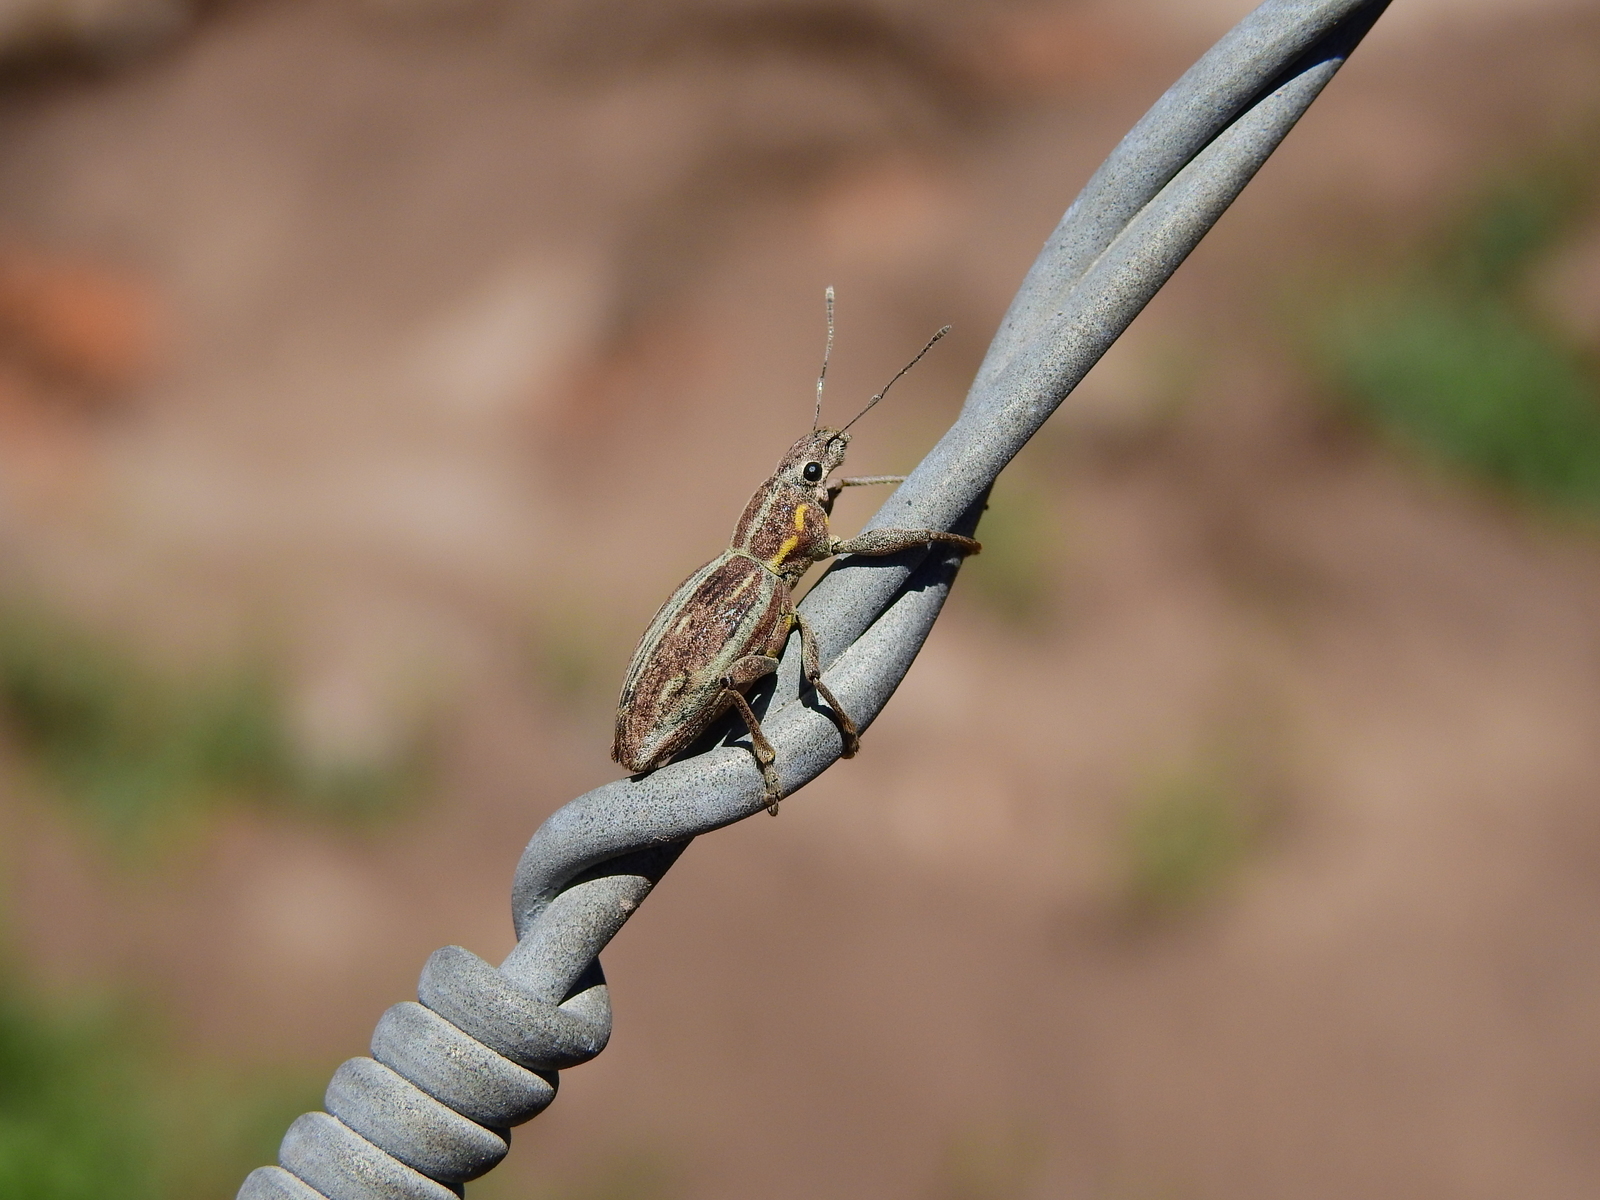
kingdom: Animalia
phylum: Arthropoda
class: Insecta
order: Coleoptera
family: Curculionidae
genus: Naupactus
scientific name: Naupactus xanthographus
